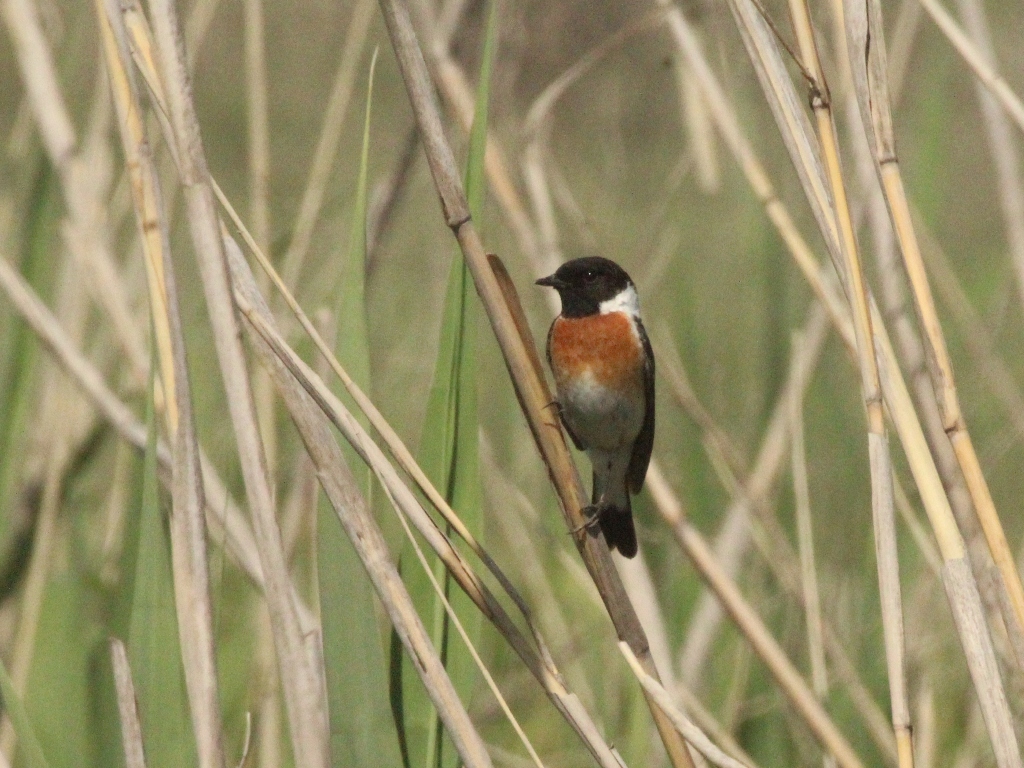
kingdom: Animalia
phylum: Chordata
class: Aves
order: Passeriformes
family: Muscicapidae
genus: Saxicola
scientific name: Saxicola maurus
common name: Siberian stonechat
